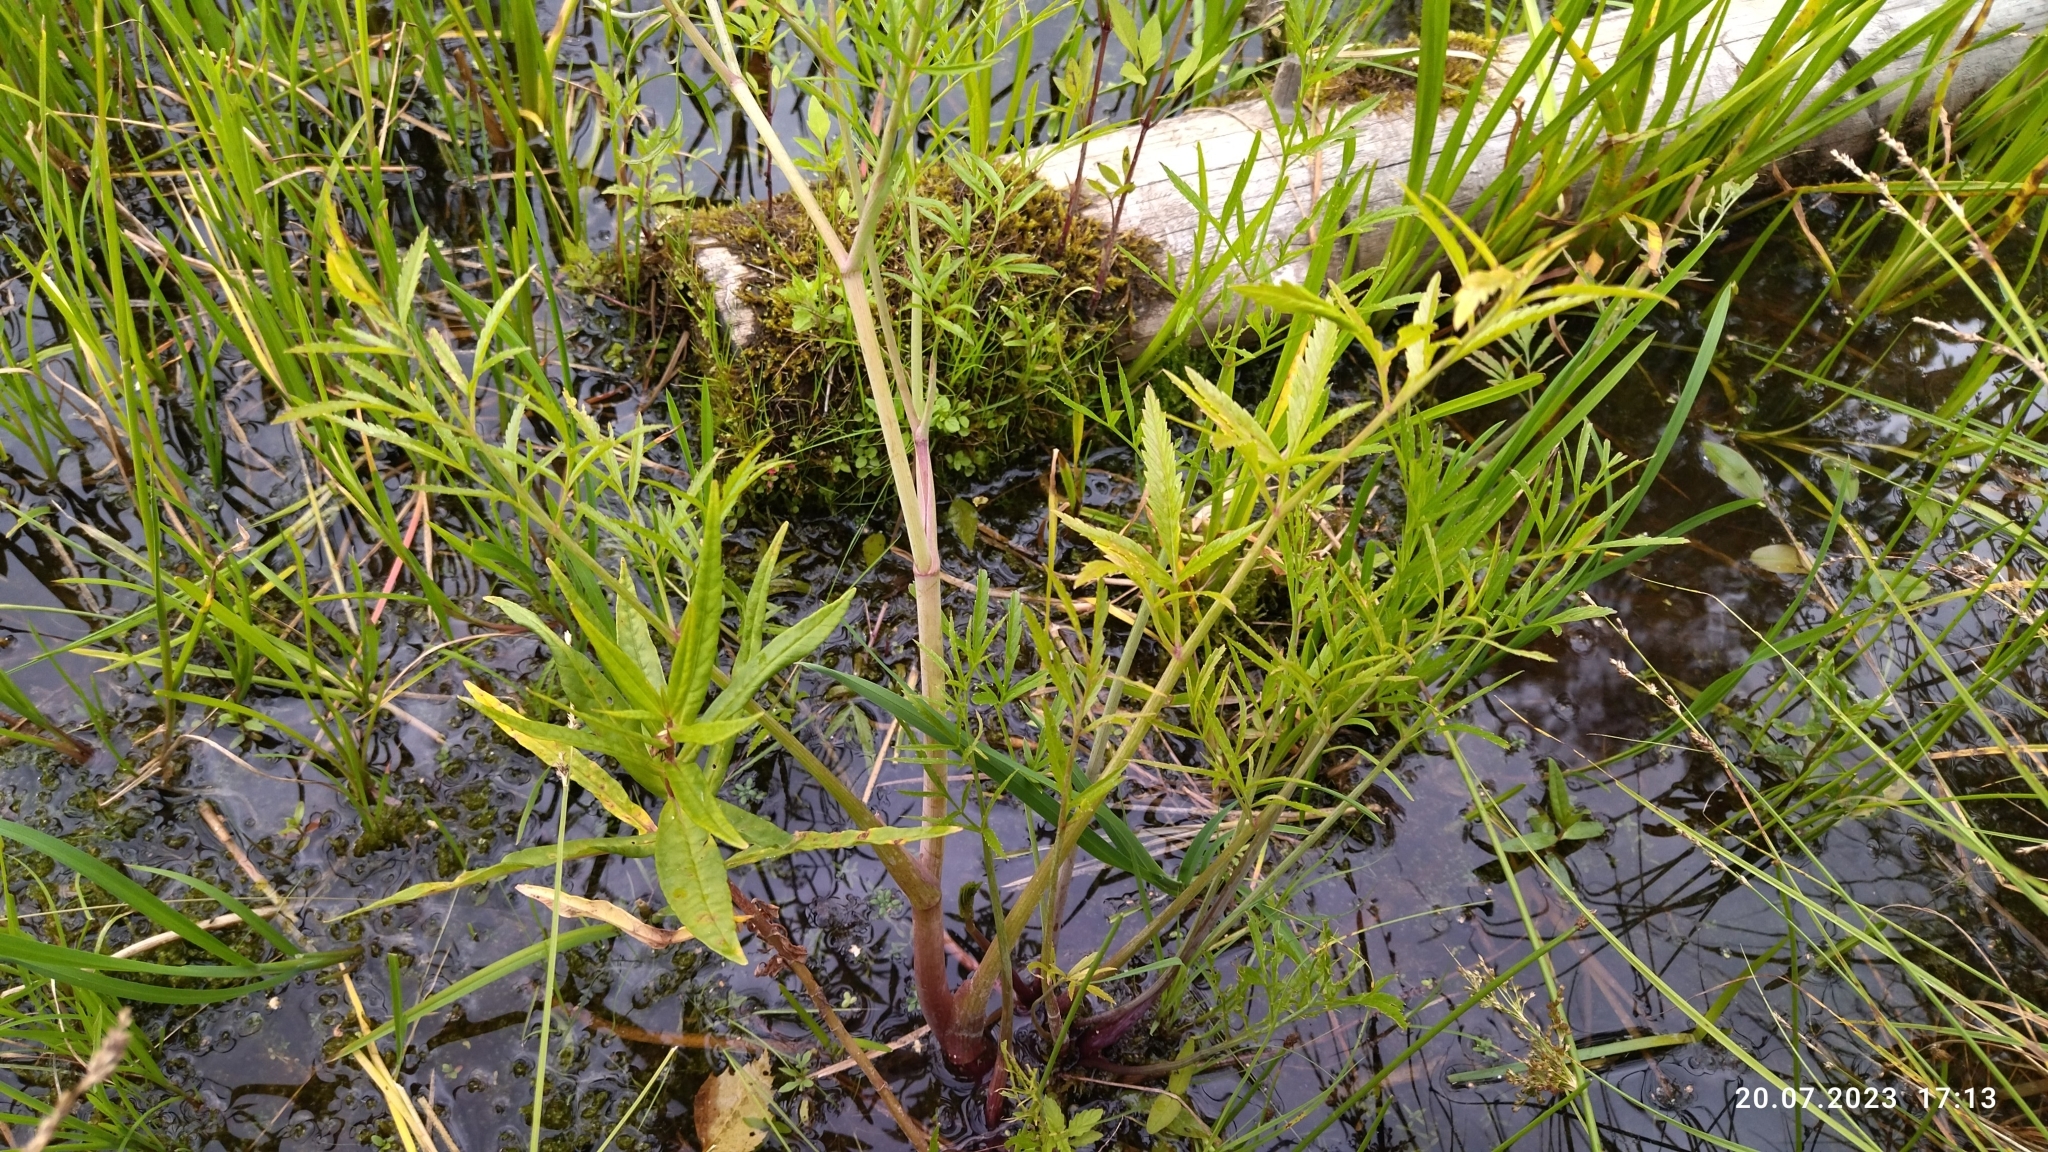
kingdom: Plantae
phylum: Tracheophyta
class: Magnoliopsida
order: Apiales
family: Apiaceae
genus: Cicuta
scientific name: Cicuta virosa
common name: Cowbane
